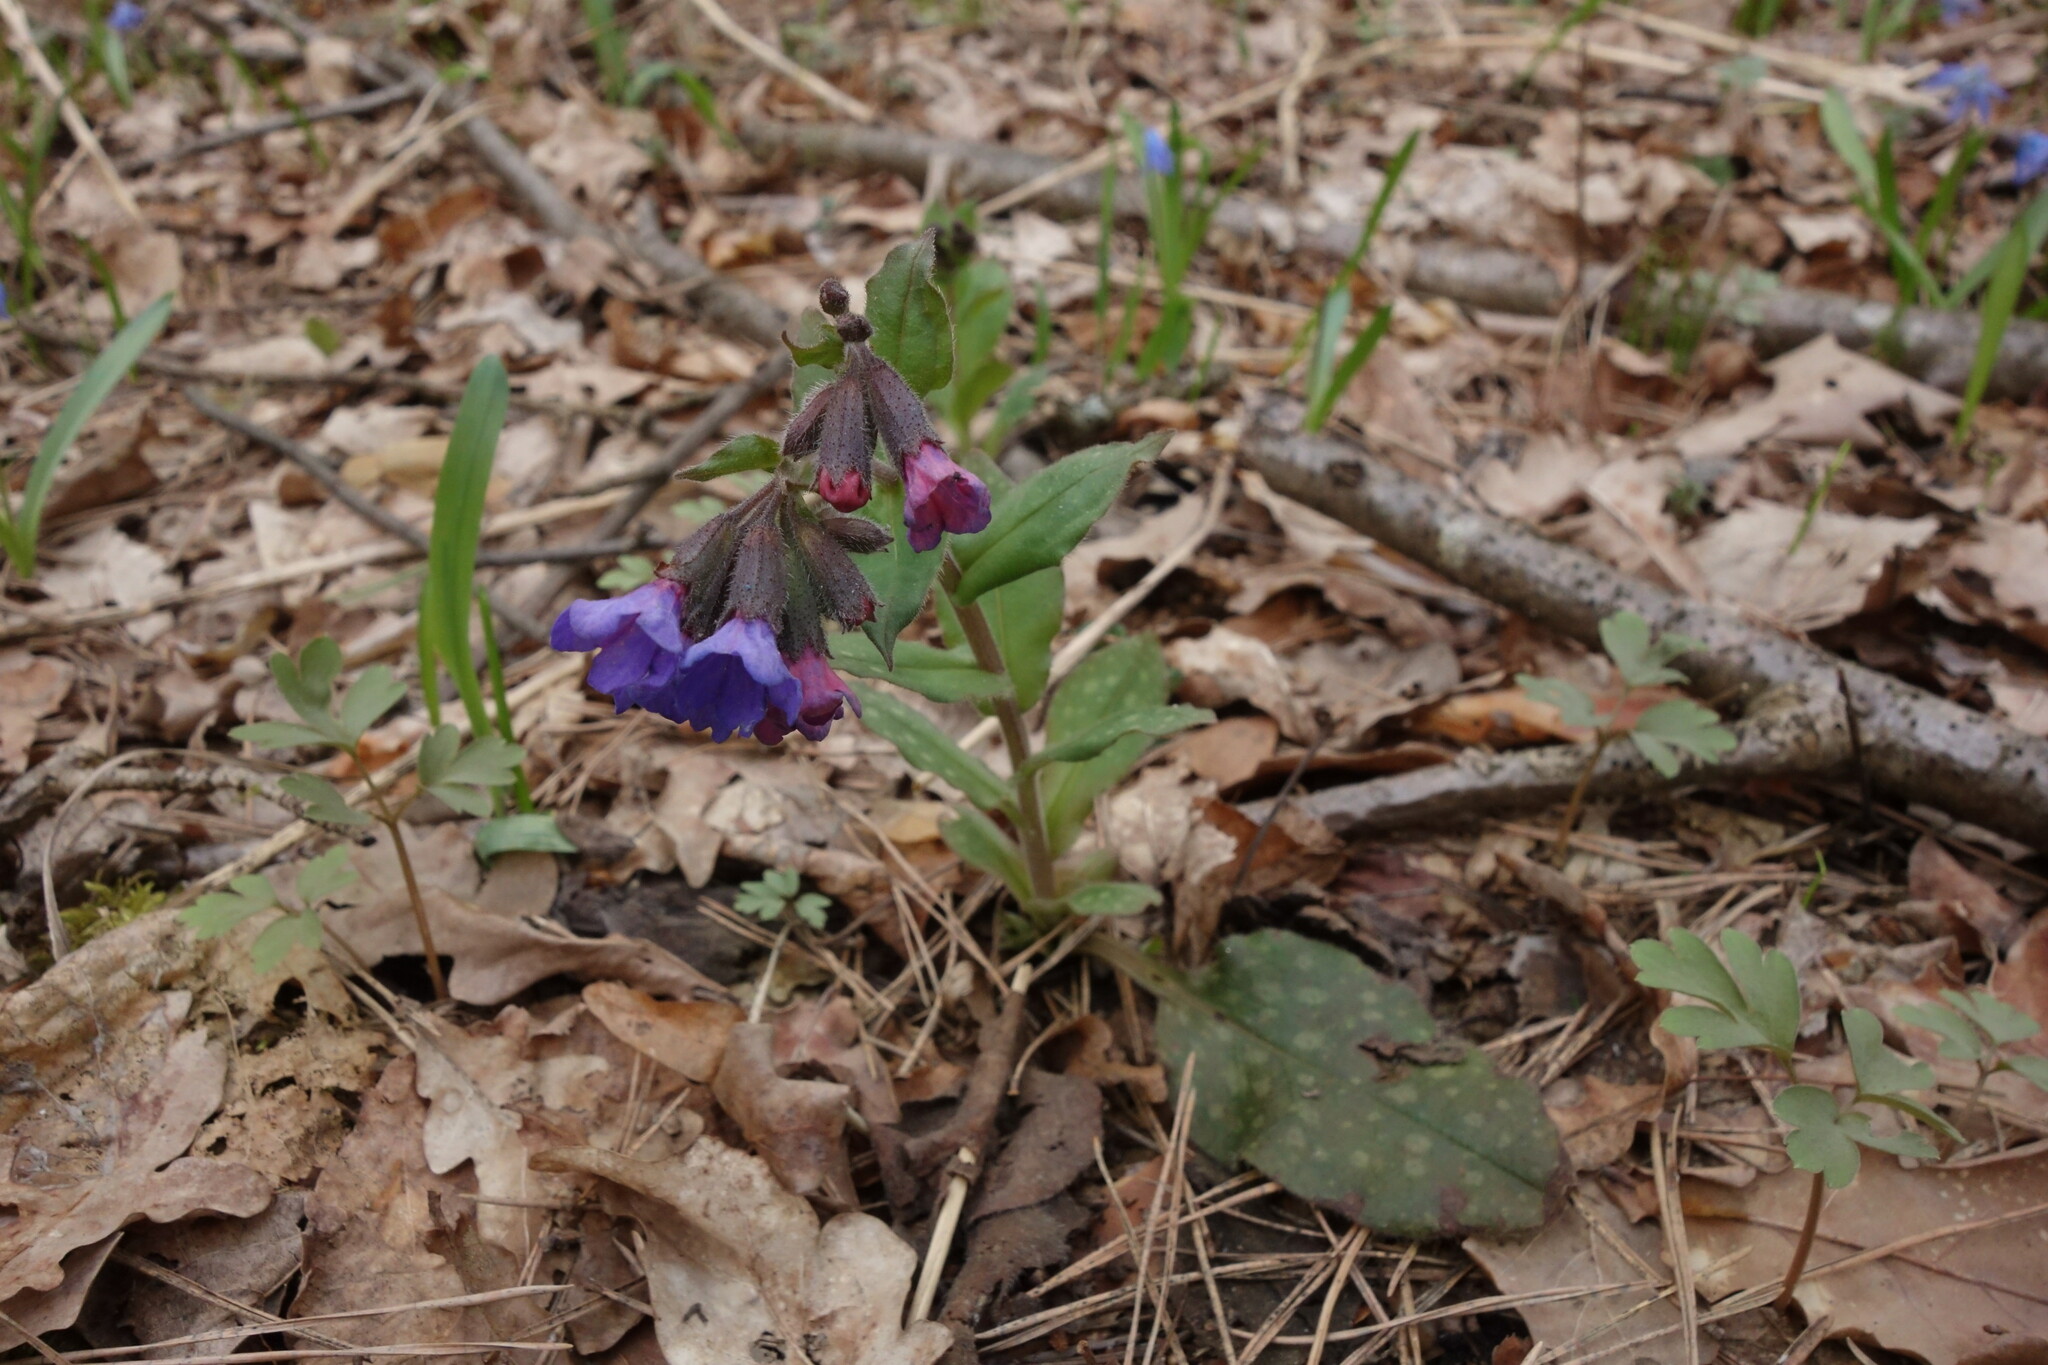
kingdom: Plantae
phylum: Tracheophyta
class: Magnoliopsida
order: Boraginales
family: Boraginaceae
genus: Pulmonaria
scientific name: Pulmonaria obscura
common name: Suffolk lungwort
